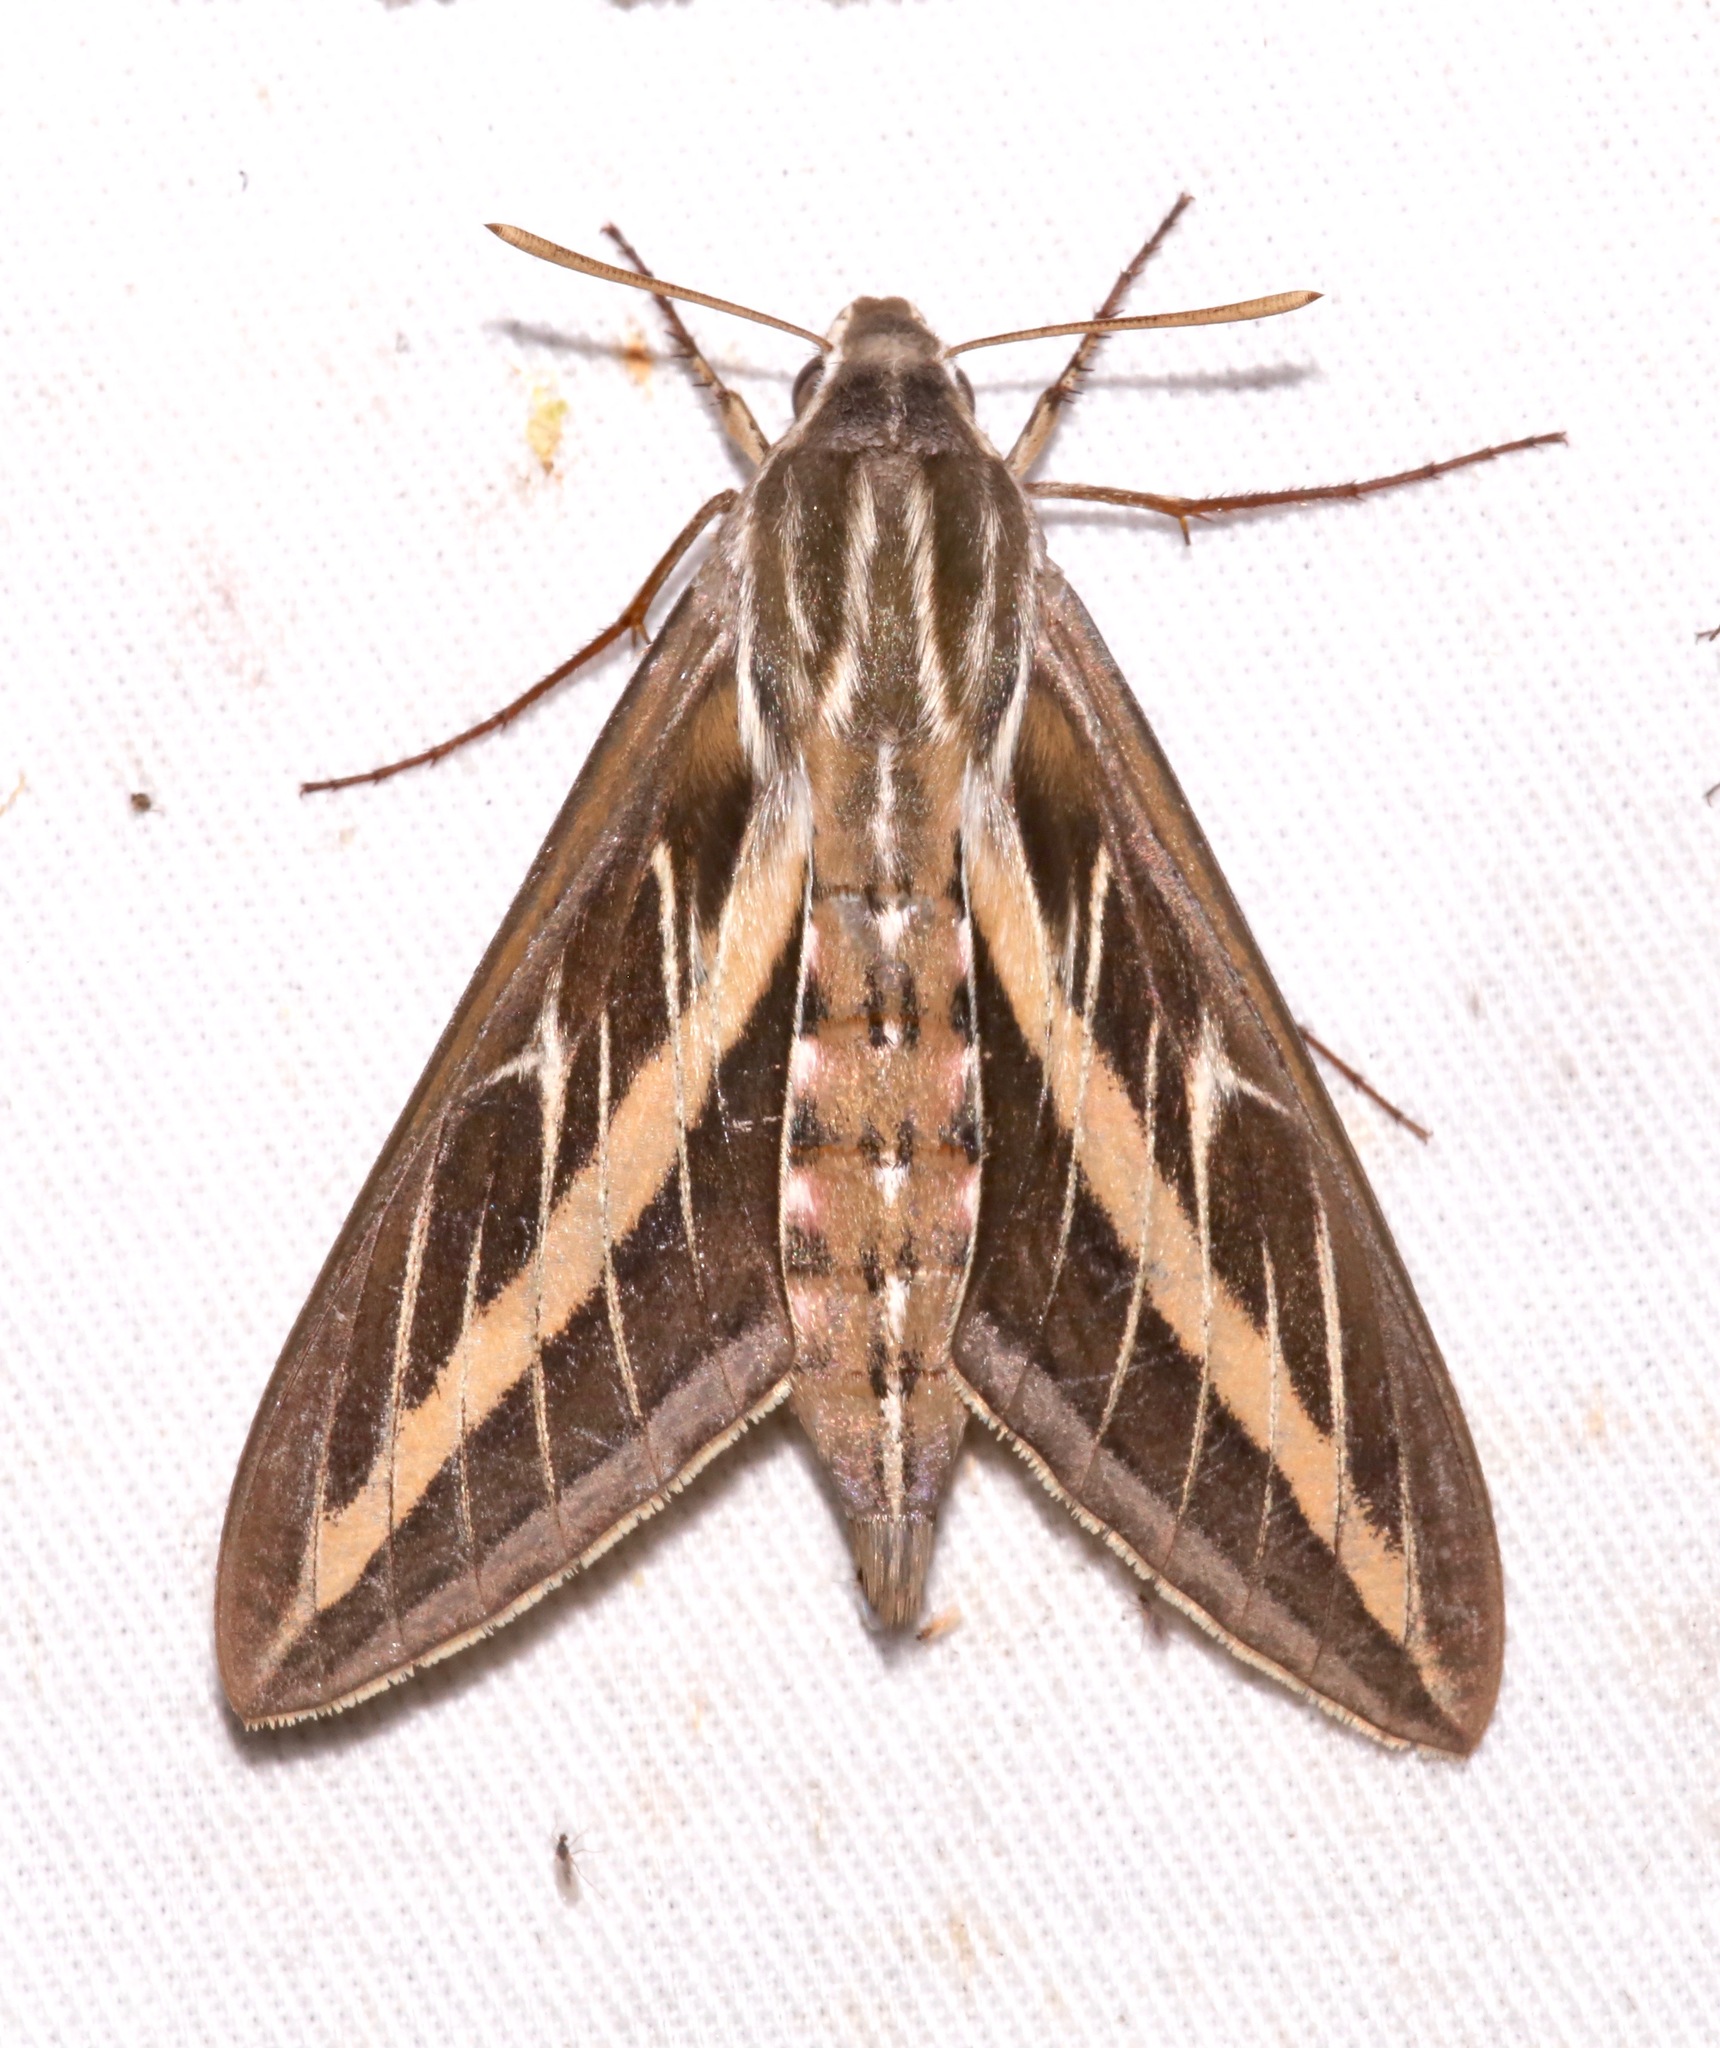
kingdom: Animalia
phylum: Arthropoda
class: Insecta
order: Lepidoptera
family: Sphingidae
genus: Hyles
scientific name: Hyles lineata
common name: White-lined sphinx
